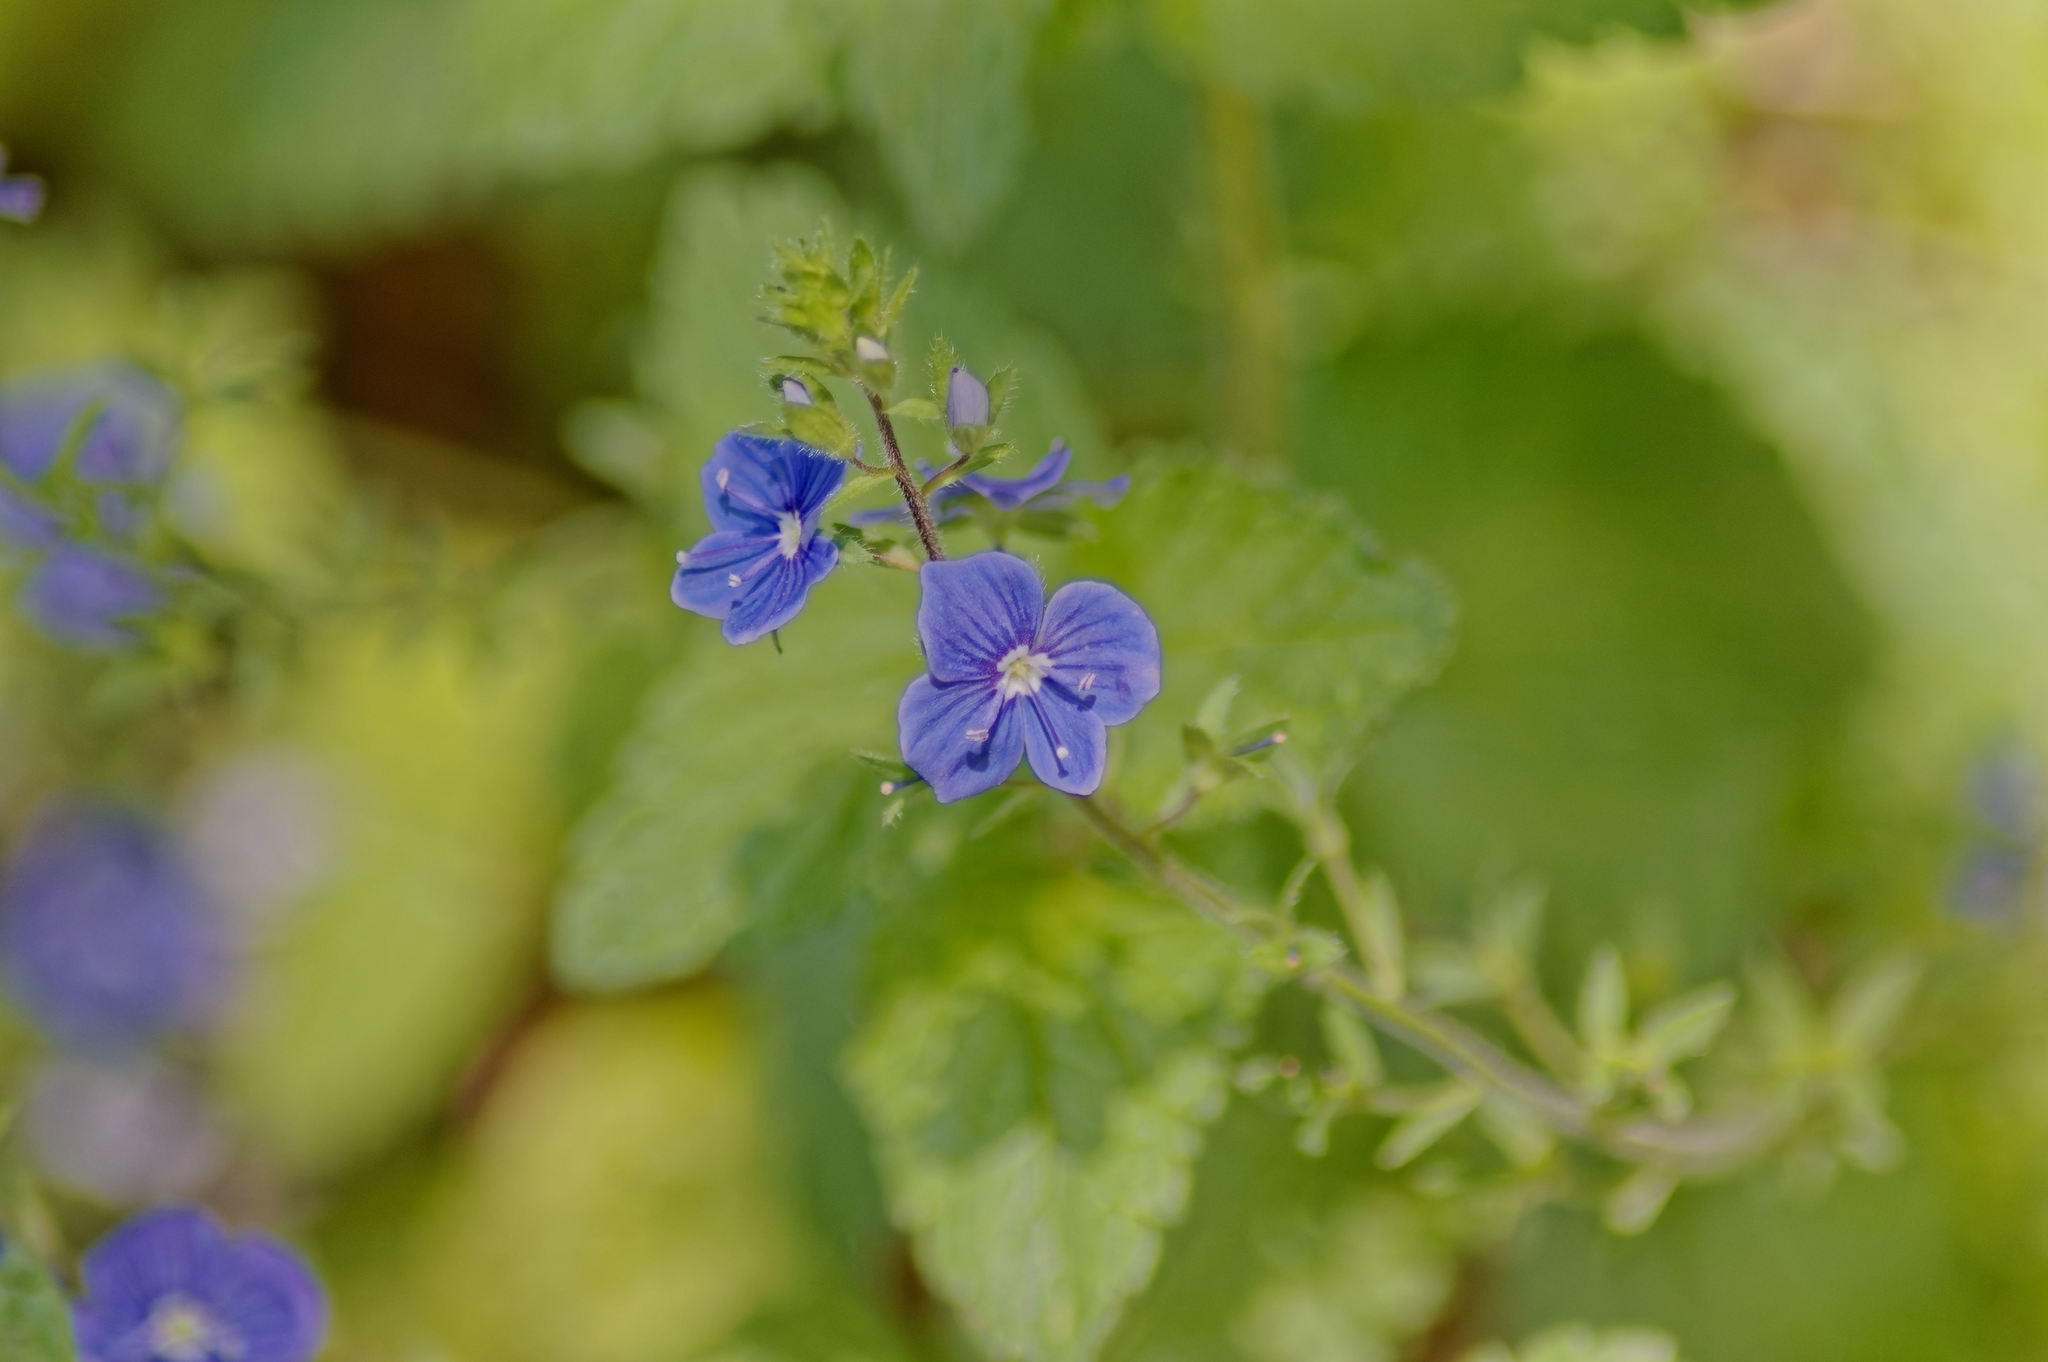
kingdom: Plantae
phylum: Tracheophyta
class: Magnoliopsida
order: Lamiales
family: Plantaginaceae
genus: Veronica
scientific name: Veronica chamaedrys
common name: Germander speedwell
